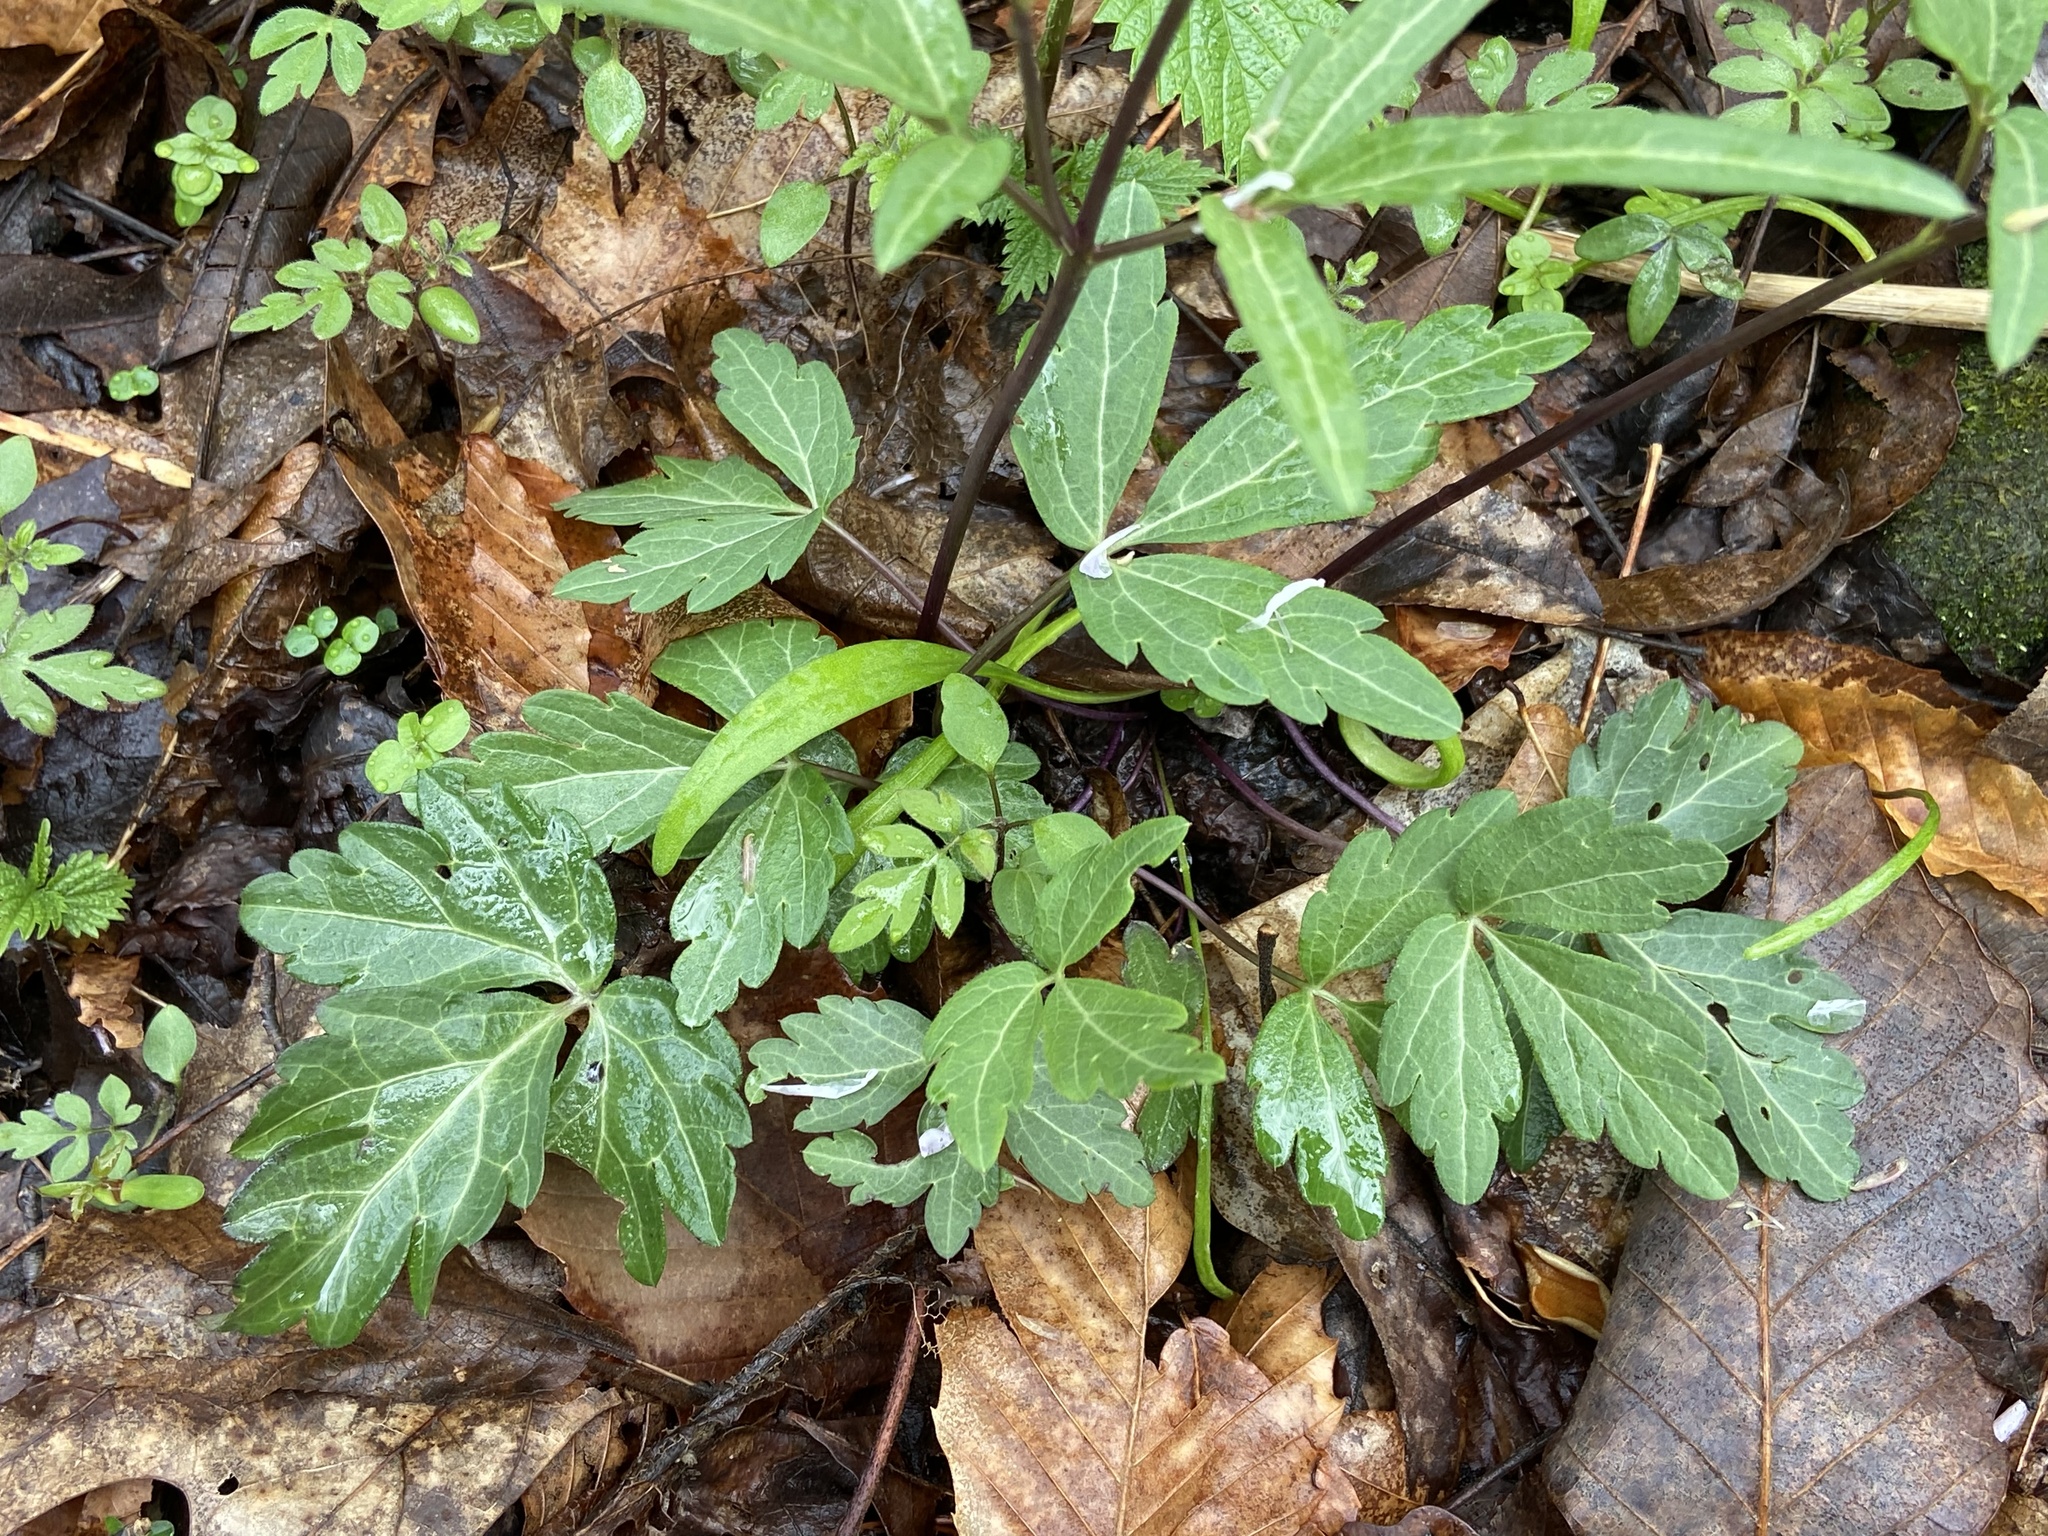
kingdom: Plantae
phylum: Tracheophyta
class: Magnoliopsida
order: Brassicales
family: Brassicaceae
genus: Cardamine
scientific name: Cardamine angustata
